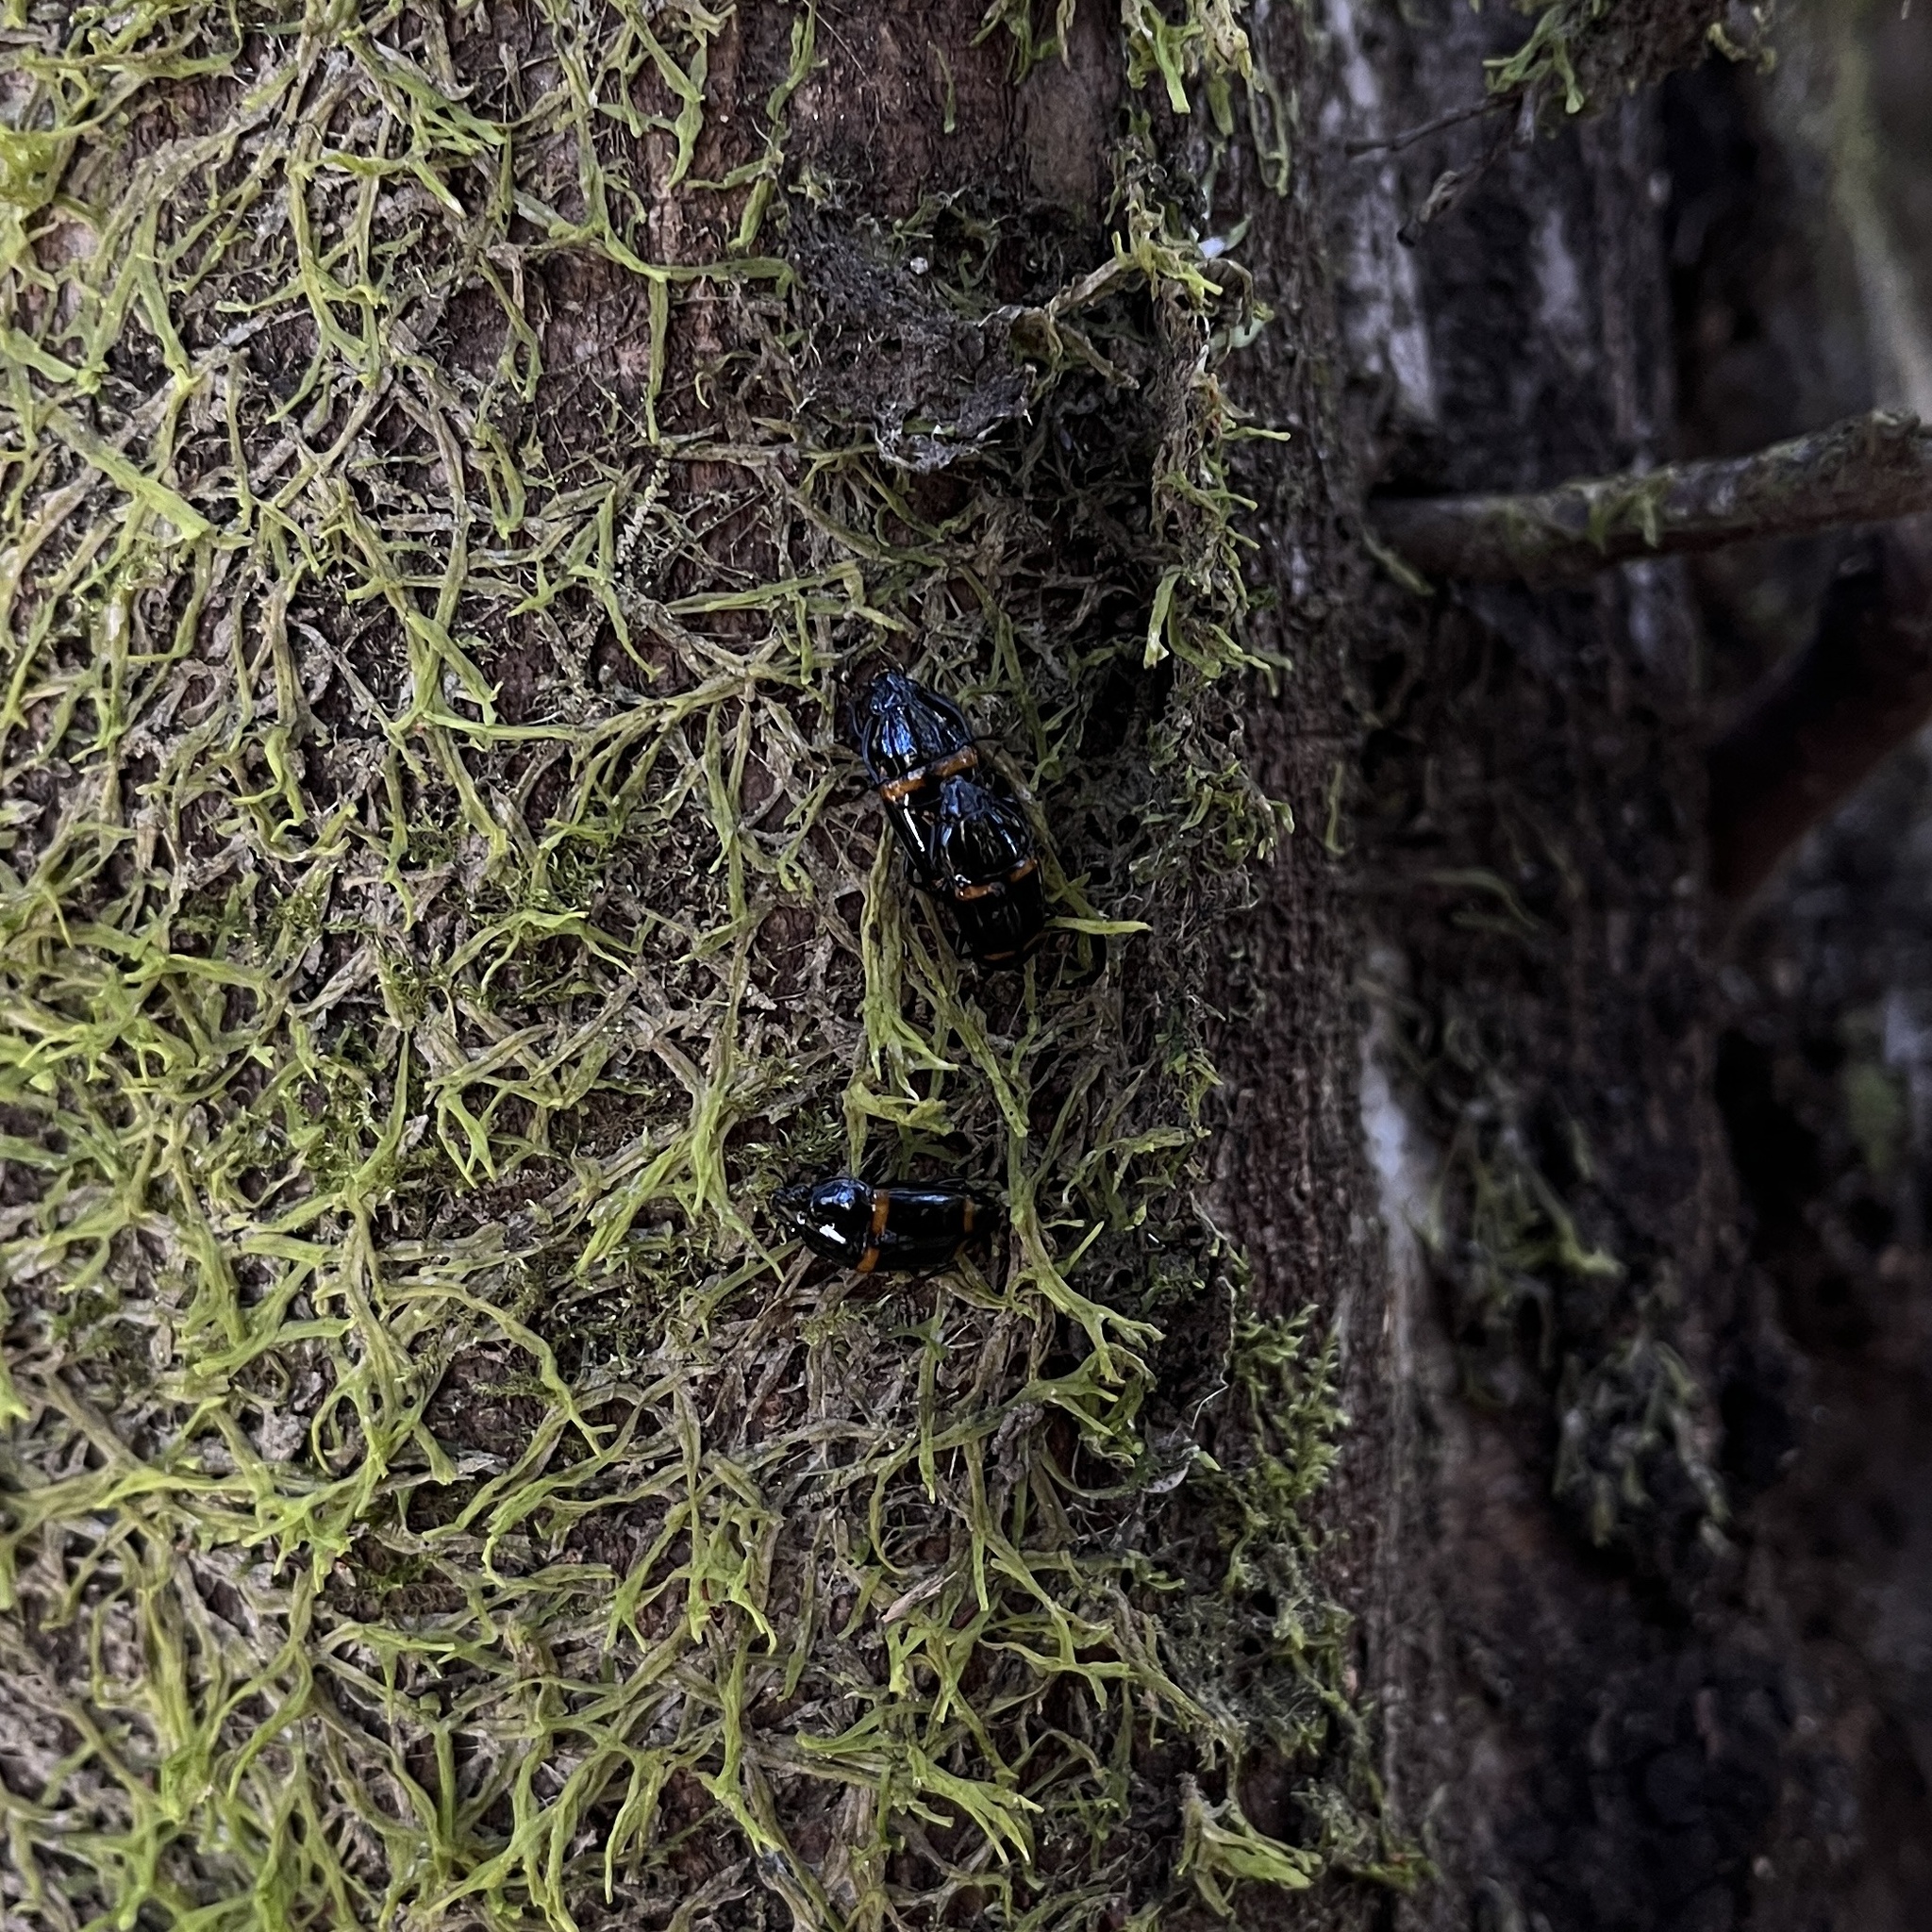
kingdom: Animalia
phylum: Arthropoda
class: Insecta
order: Coleoptera
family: Nitidulidae
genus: Lioschema
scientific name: Lioschema
